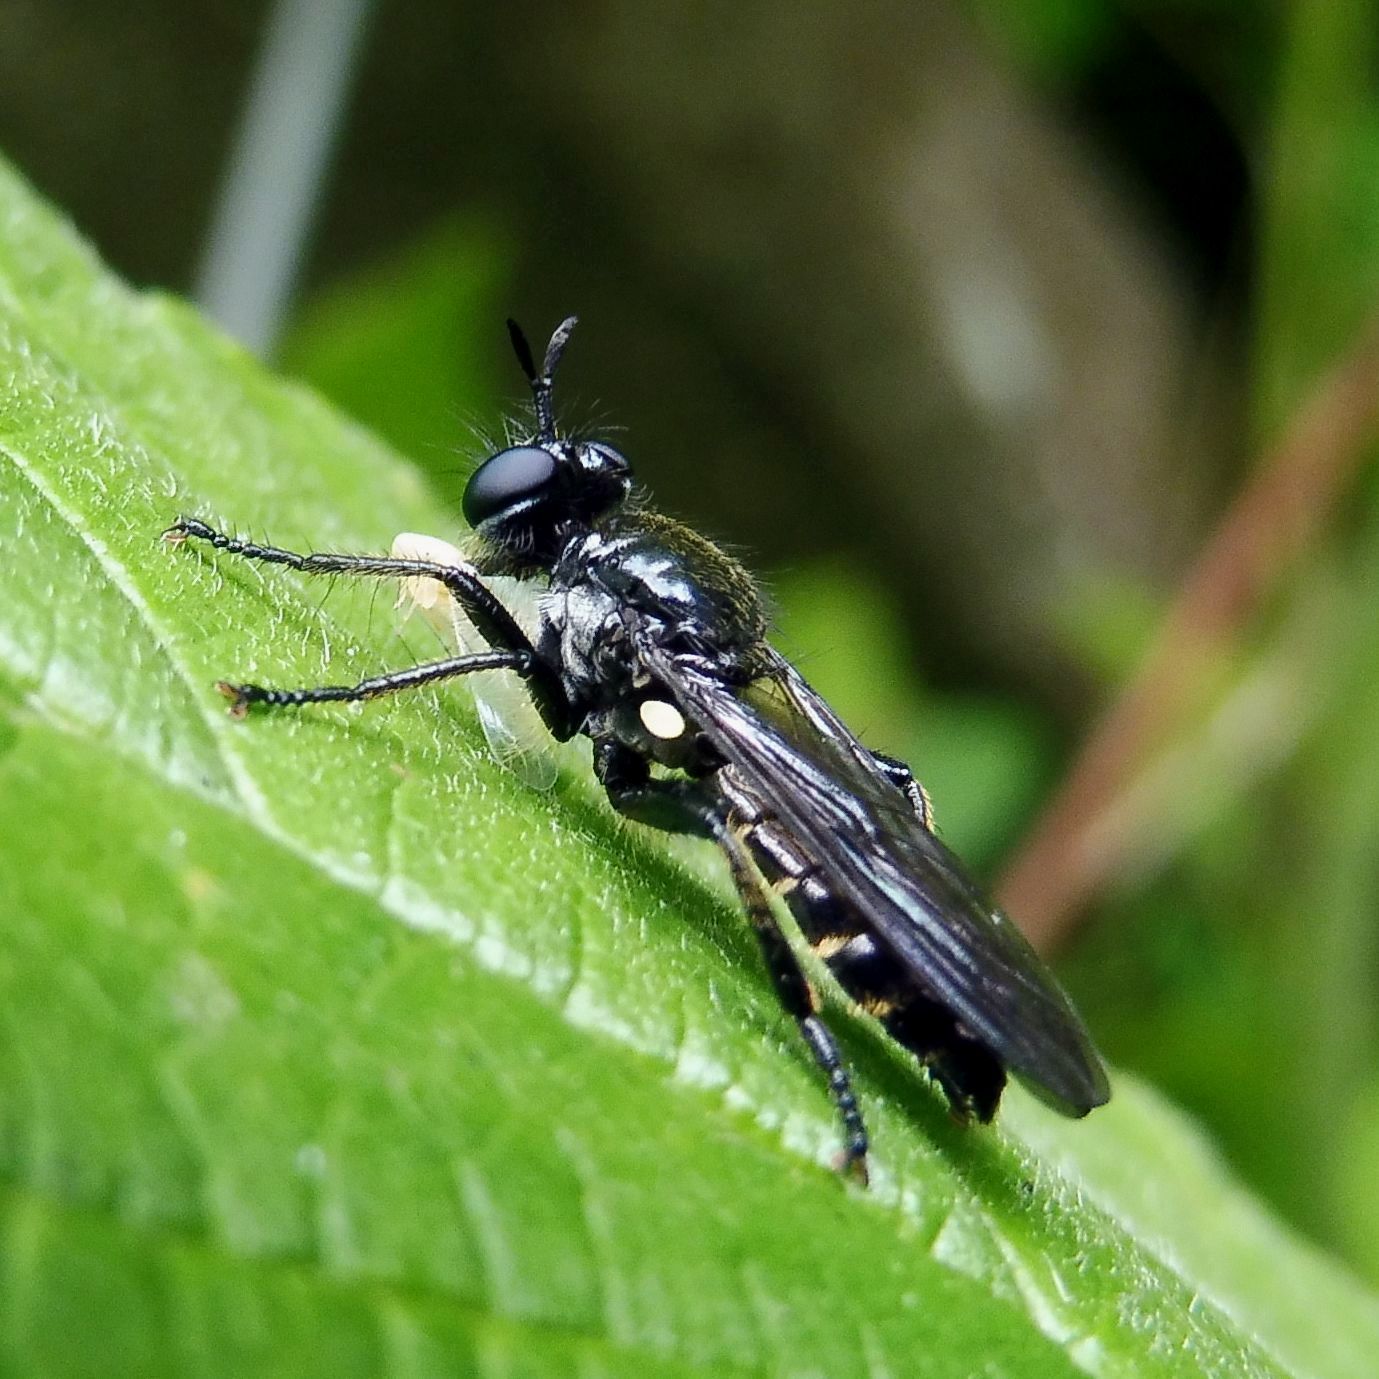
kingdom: Animalia
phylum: Arthropoda
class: Insecta
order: Diptera
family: Asilidae
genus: Lamyra
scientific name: Lamyra marginata
